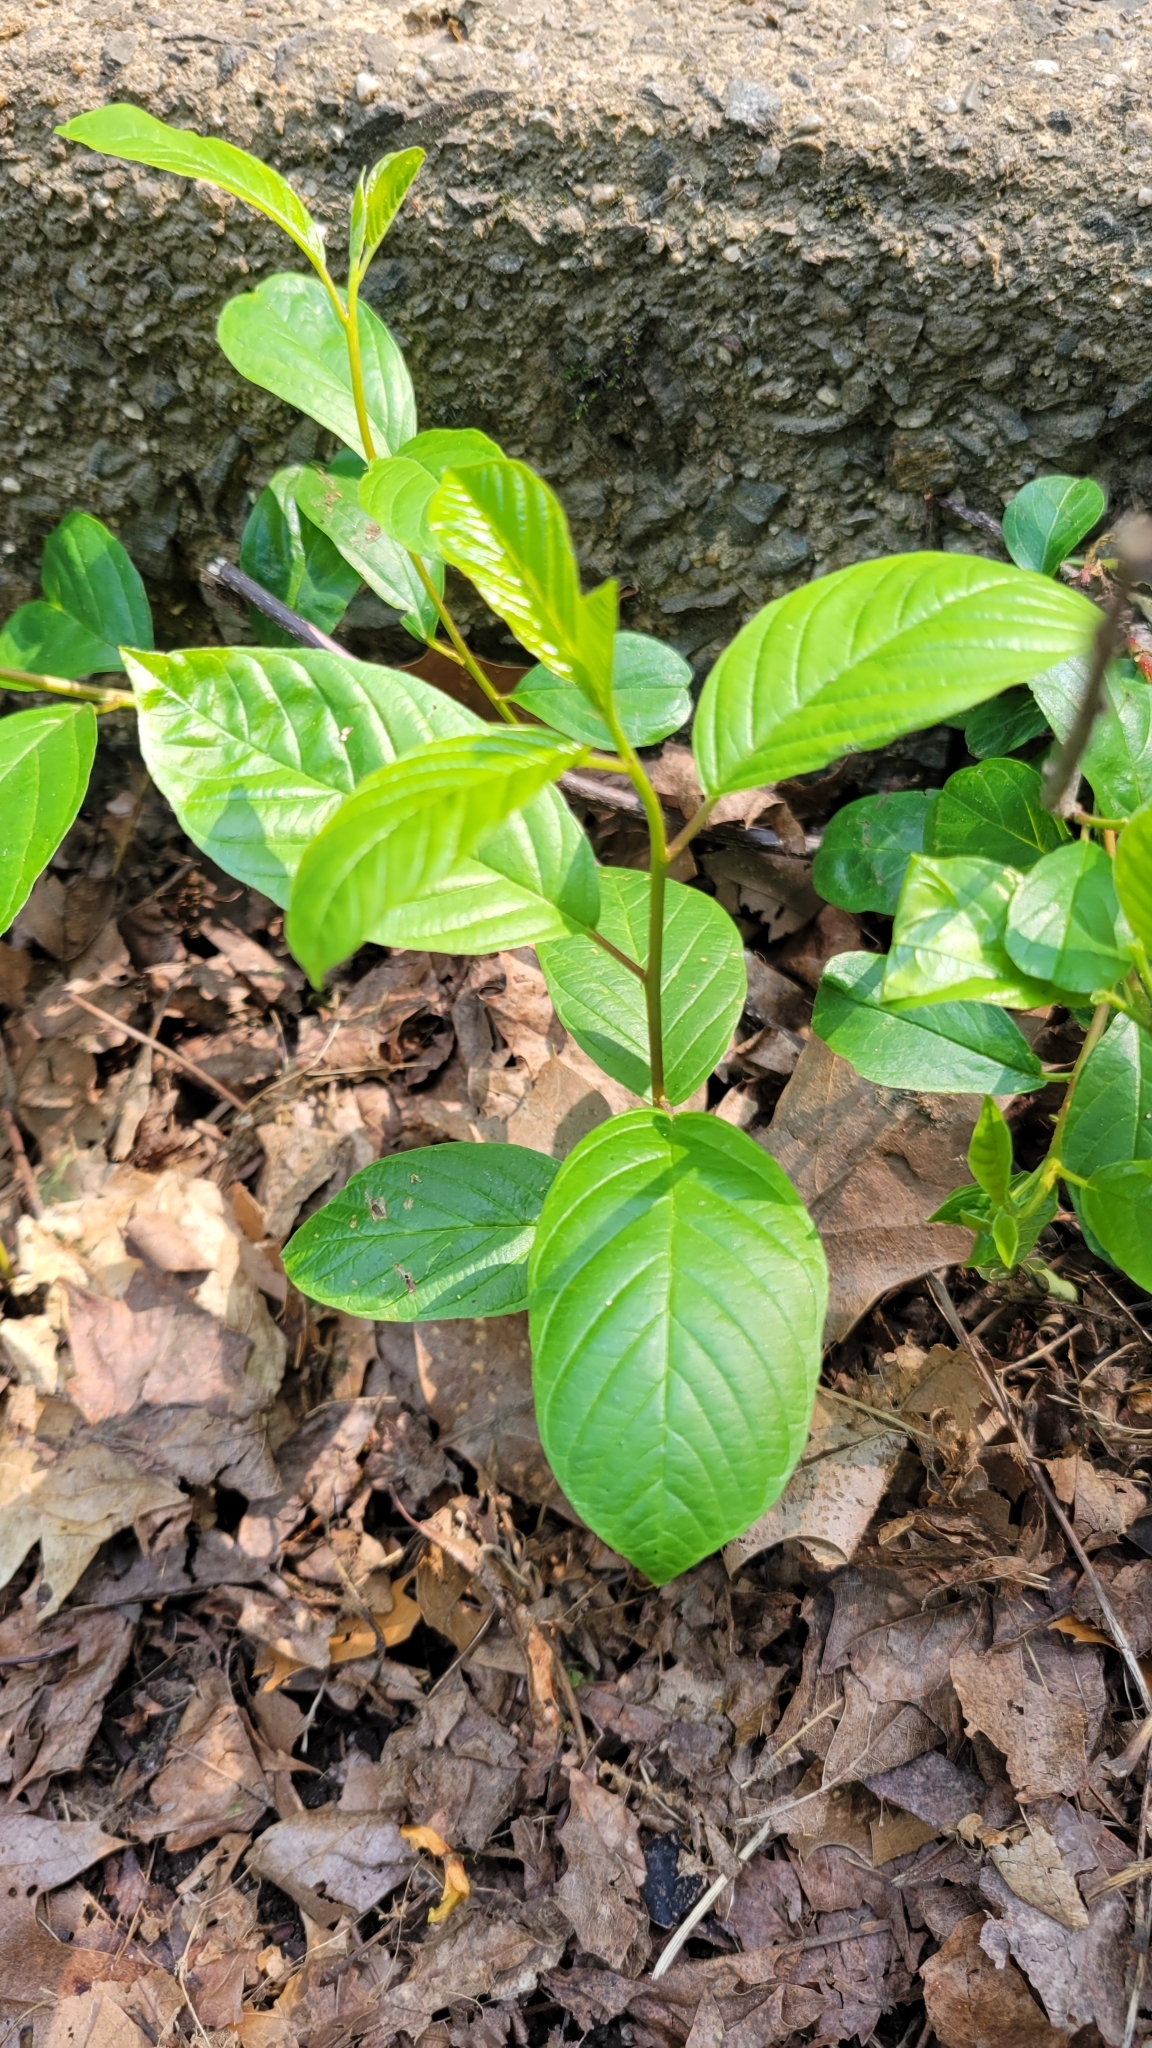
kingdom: Plantae
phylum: Tracheophyta
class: Magnoliopsida
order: Rosales
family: Rhamnaceae
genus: Frangula
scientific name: Frangula alnus
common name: Alder buckthorn
